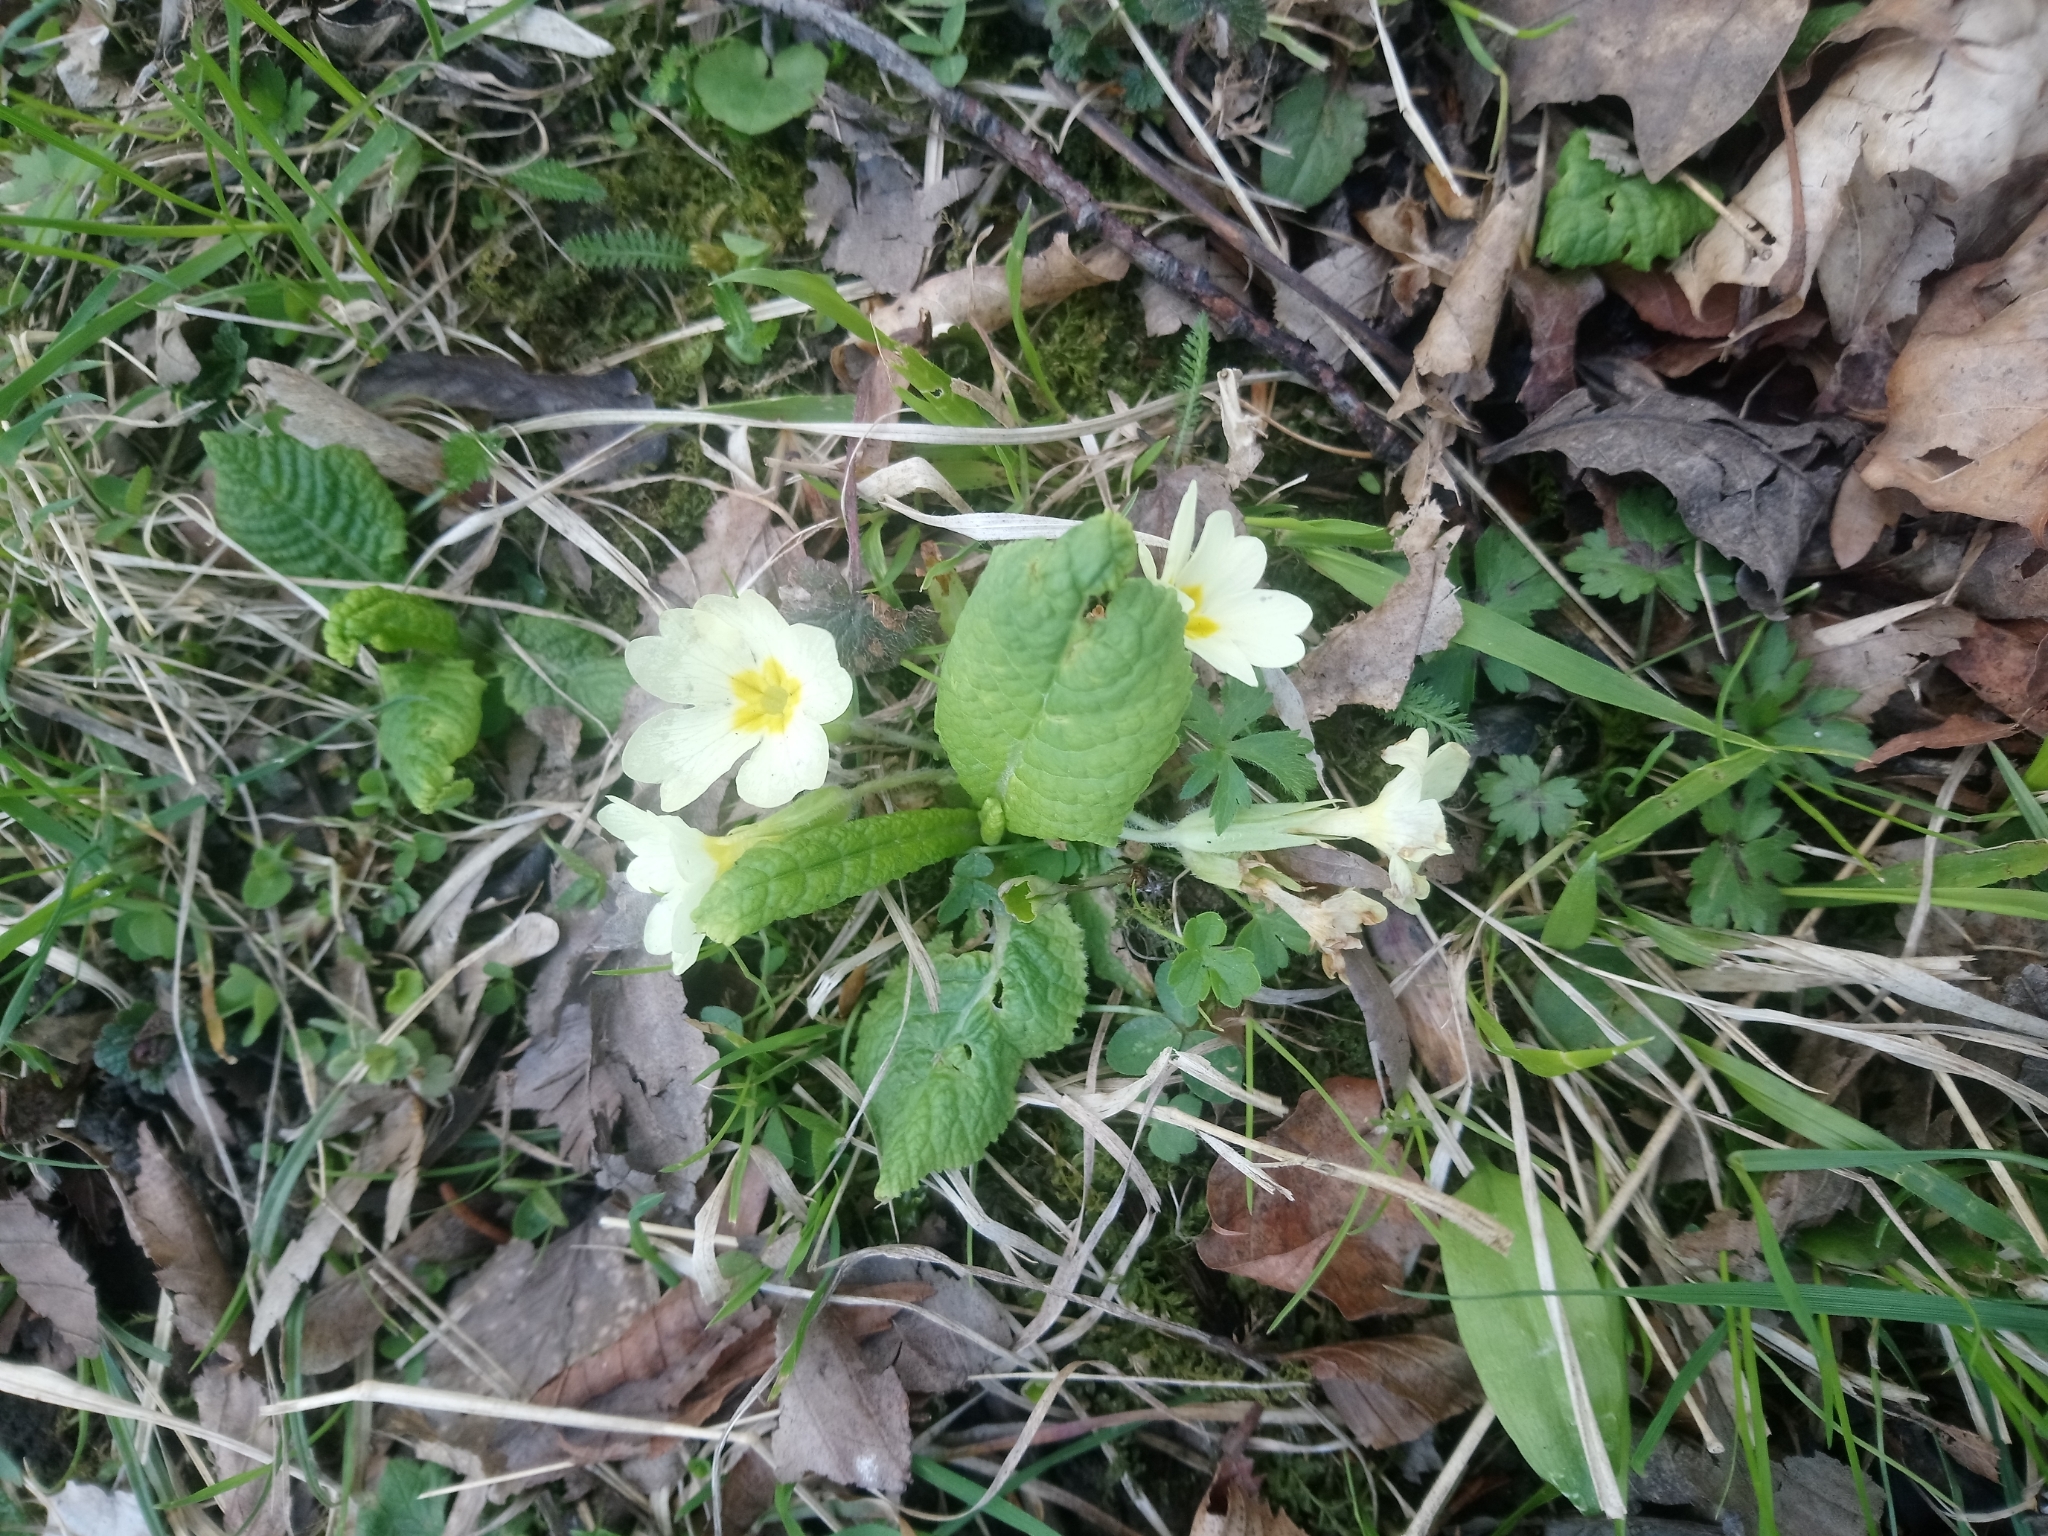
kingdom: Plantae
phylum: Tracheophyta
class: Magnoliopsida
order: Ericales
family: Primulaceae
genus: Primula
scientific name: Primula vulgaris
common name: Primrose
